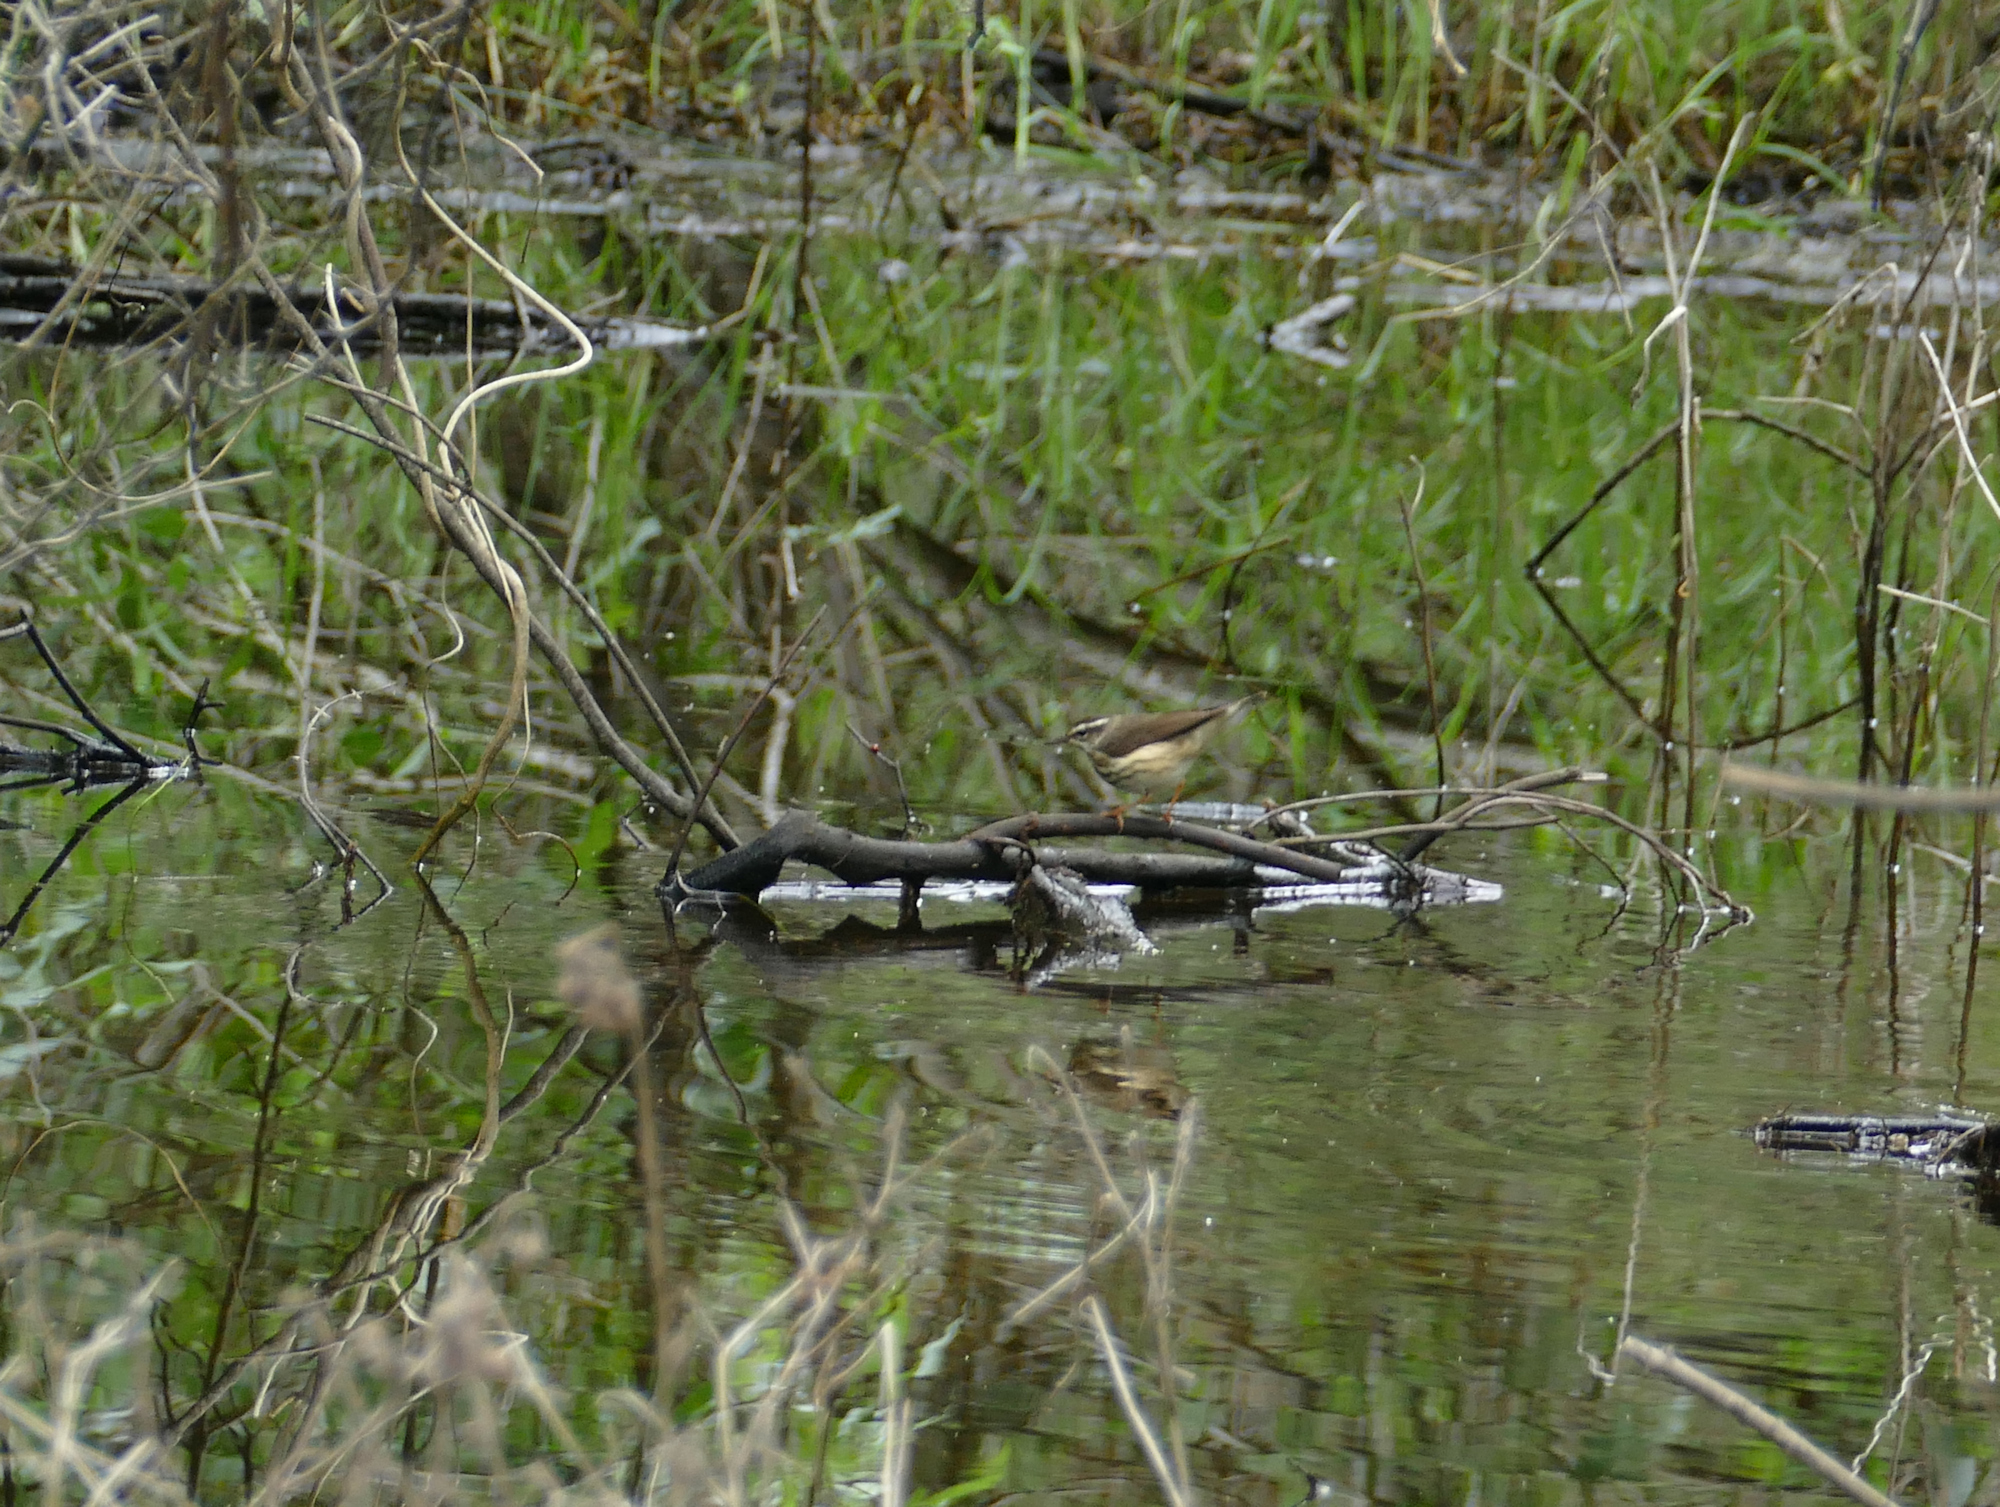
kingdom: Animalia
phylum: Chordata
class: Aves
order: Passeriformes
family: Parulidae
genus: Parkesia
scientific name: Parkesia motacilla
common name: Louisiana waterthrush
